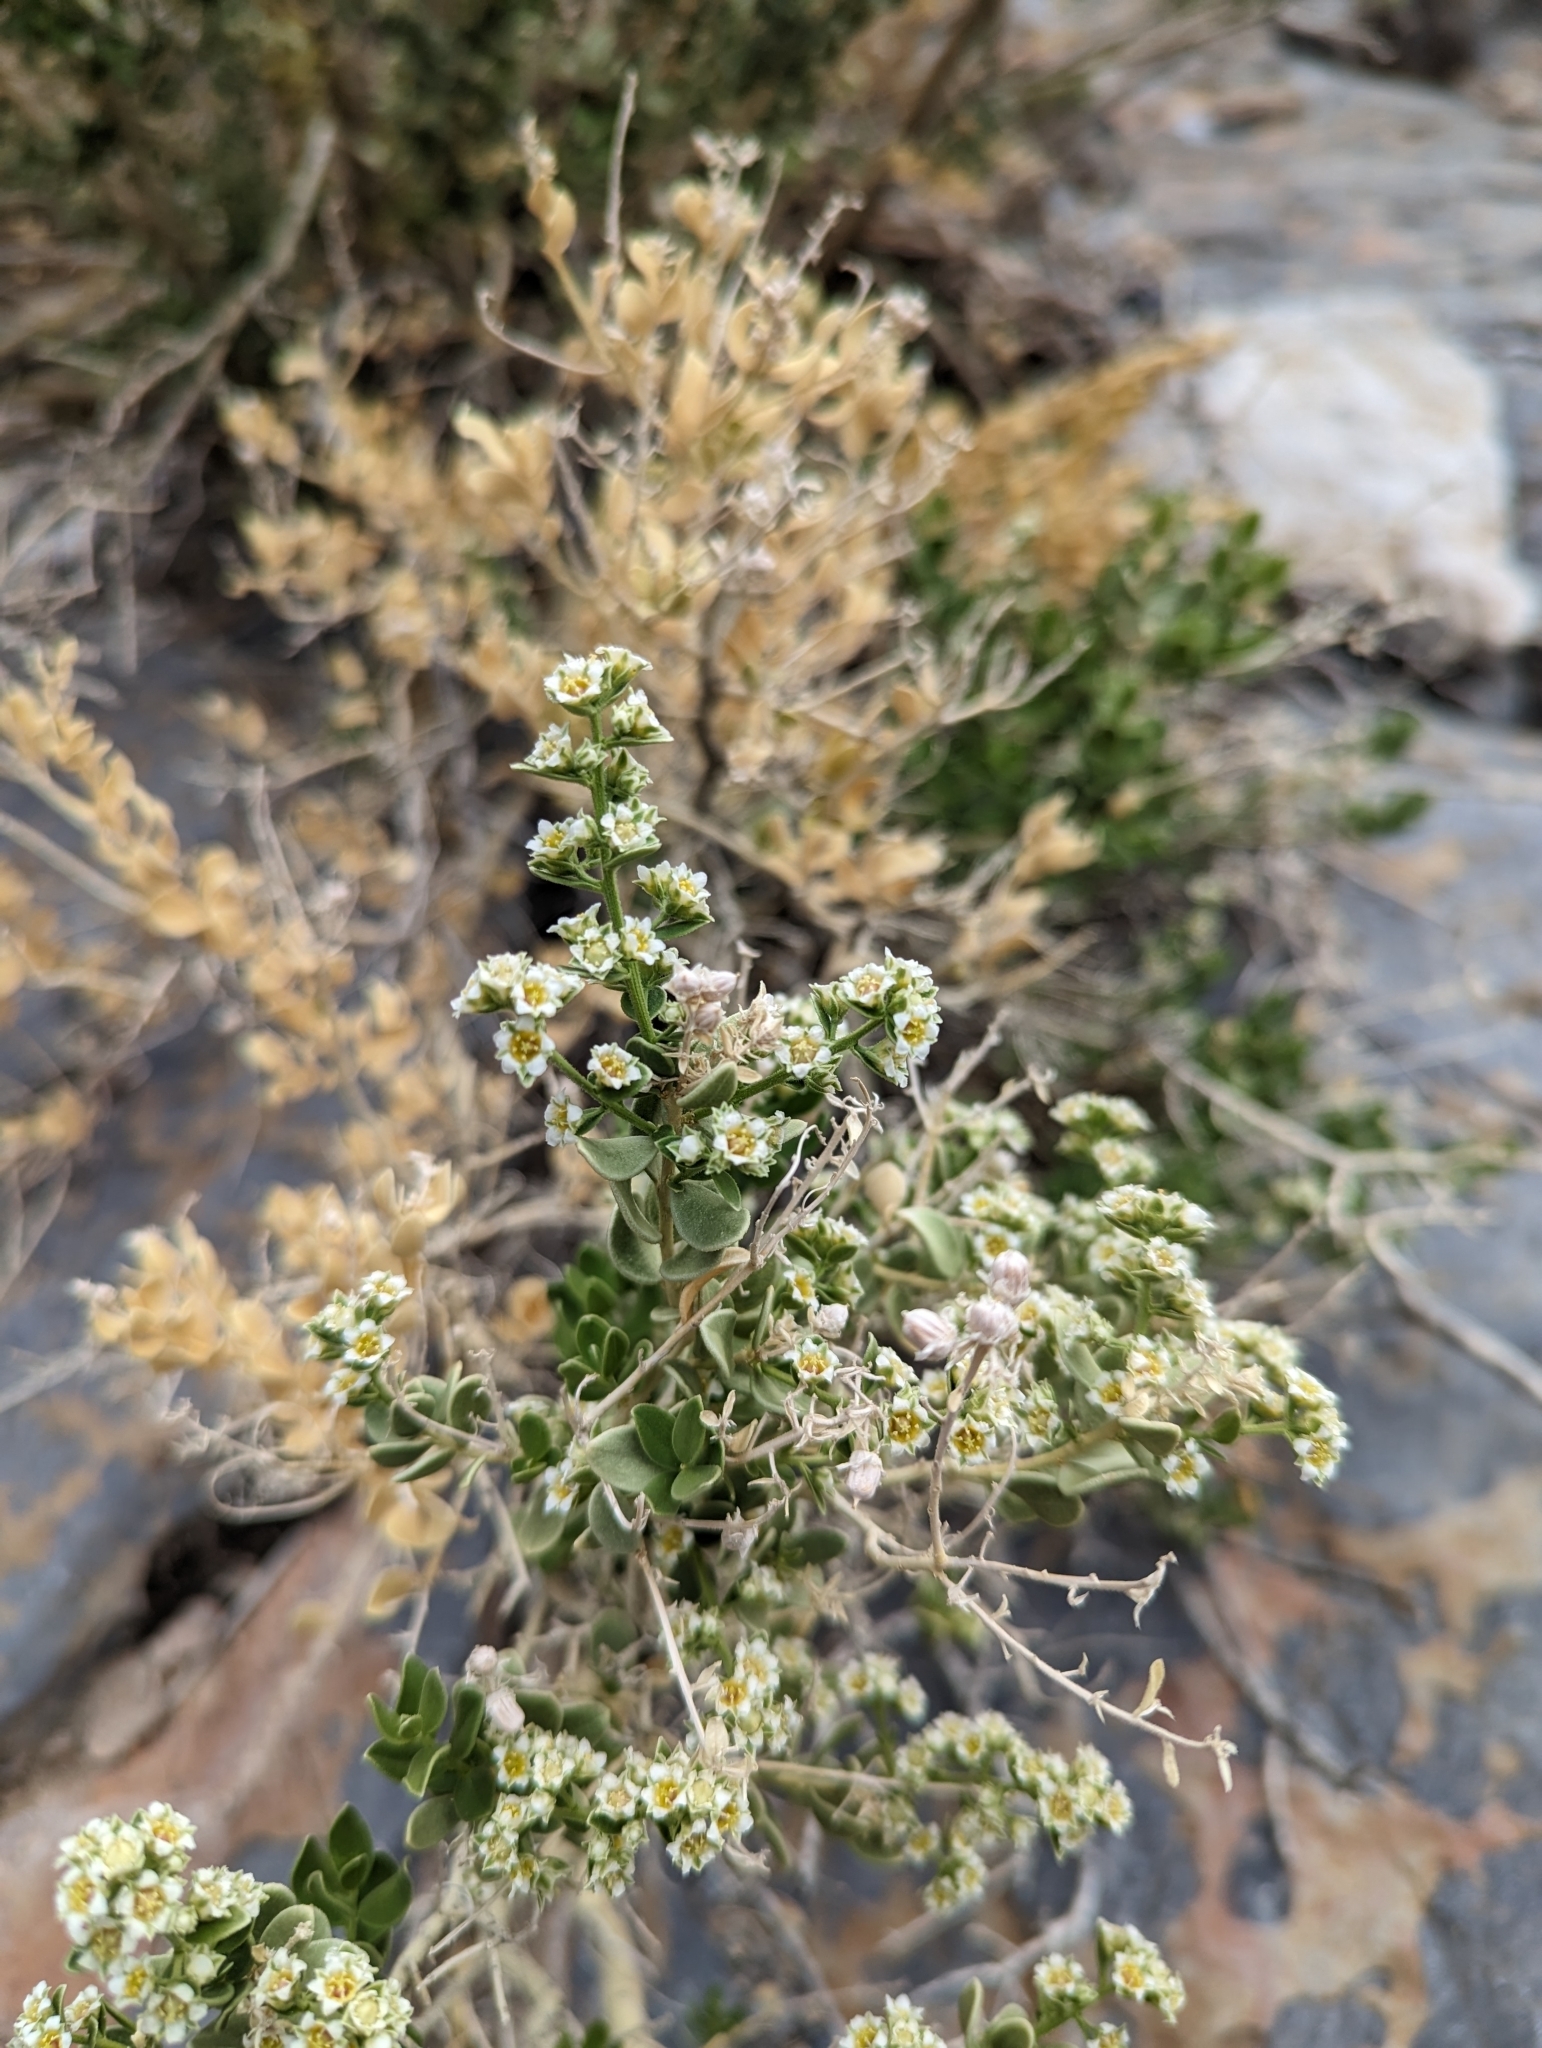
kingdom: Plantae
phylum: Tracheophyta
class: Magnoliopsida
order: Celastrales
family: Celastraceae
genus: Mortonia
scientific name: Mortonia utahensis
